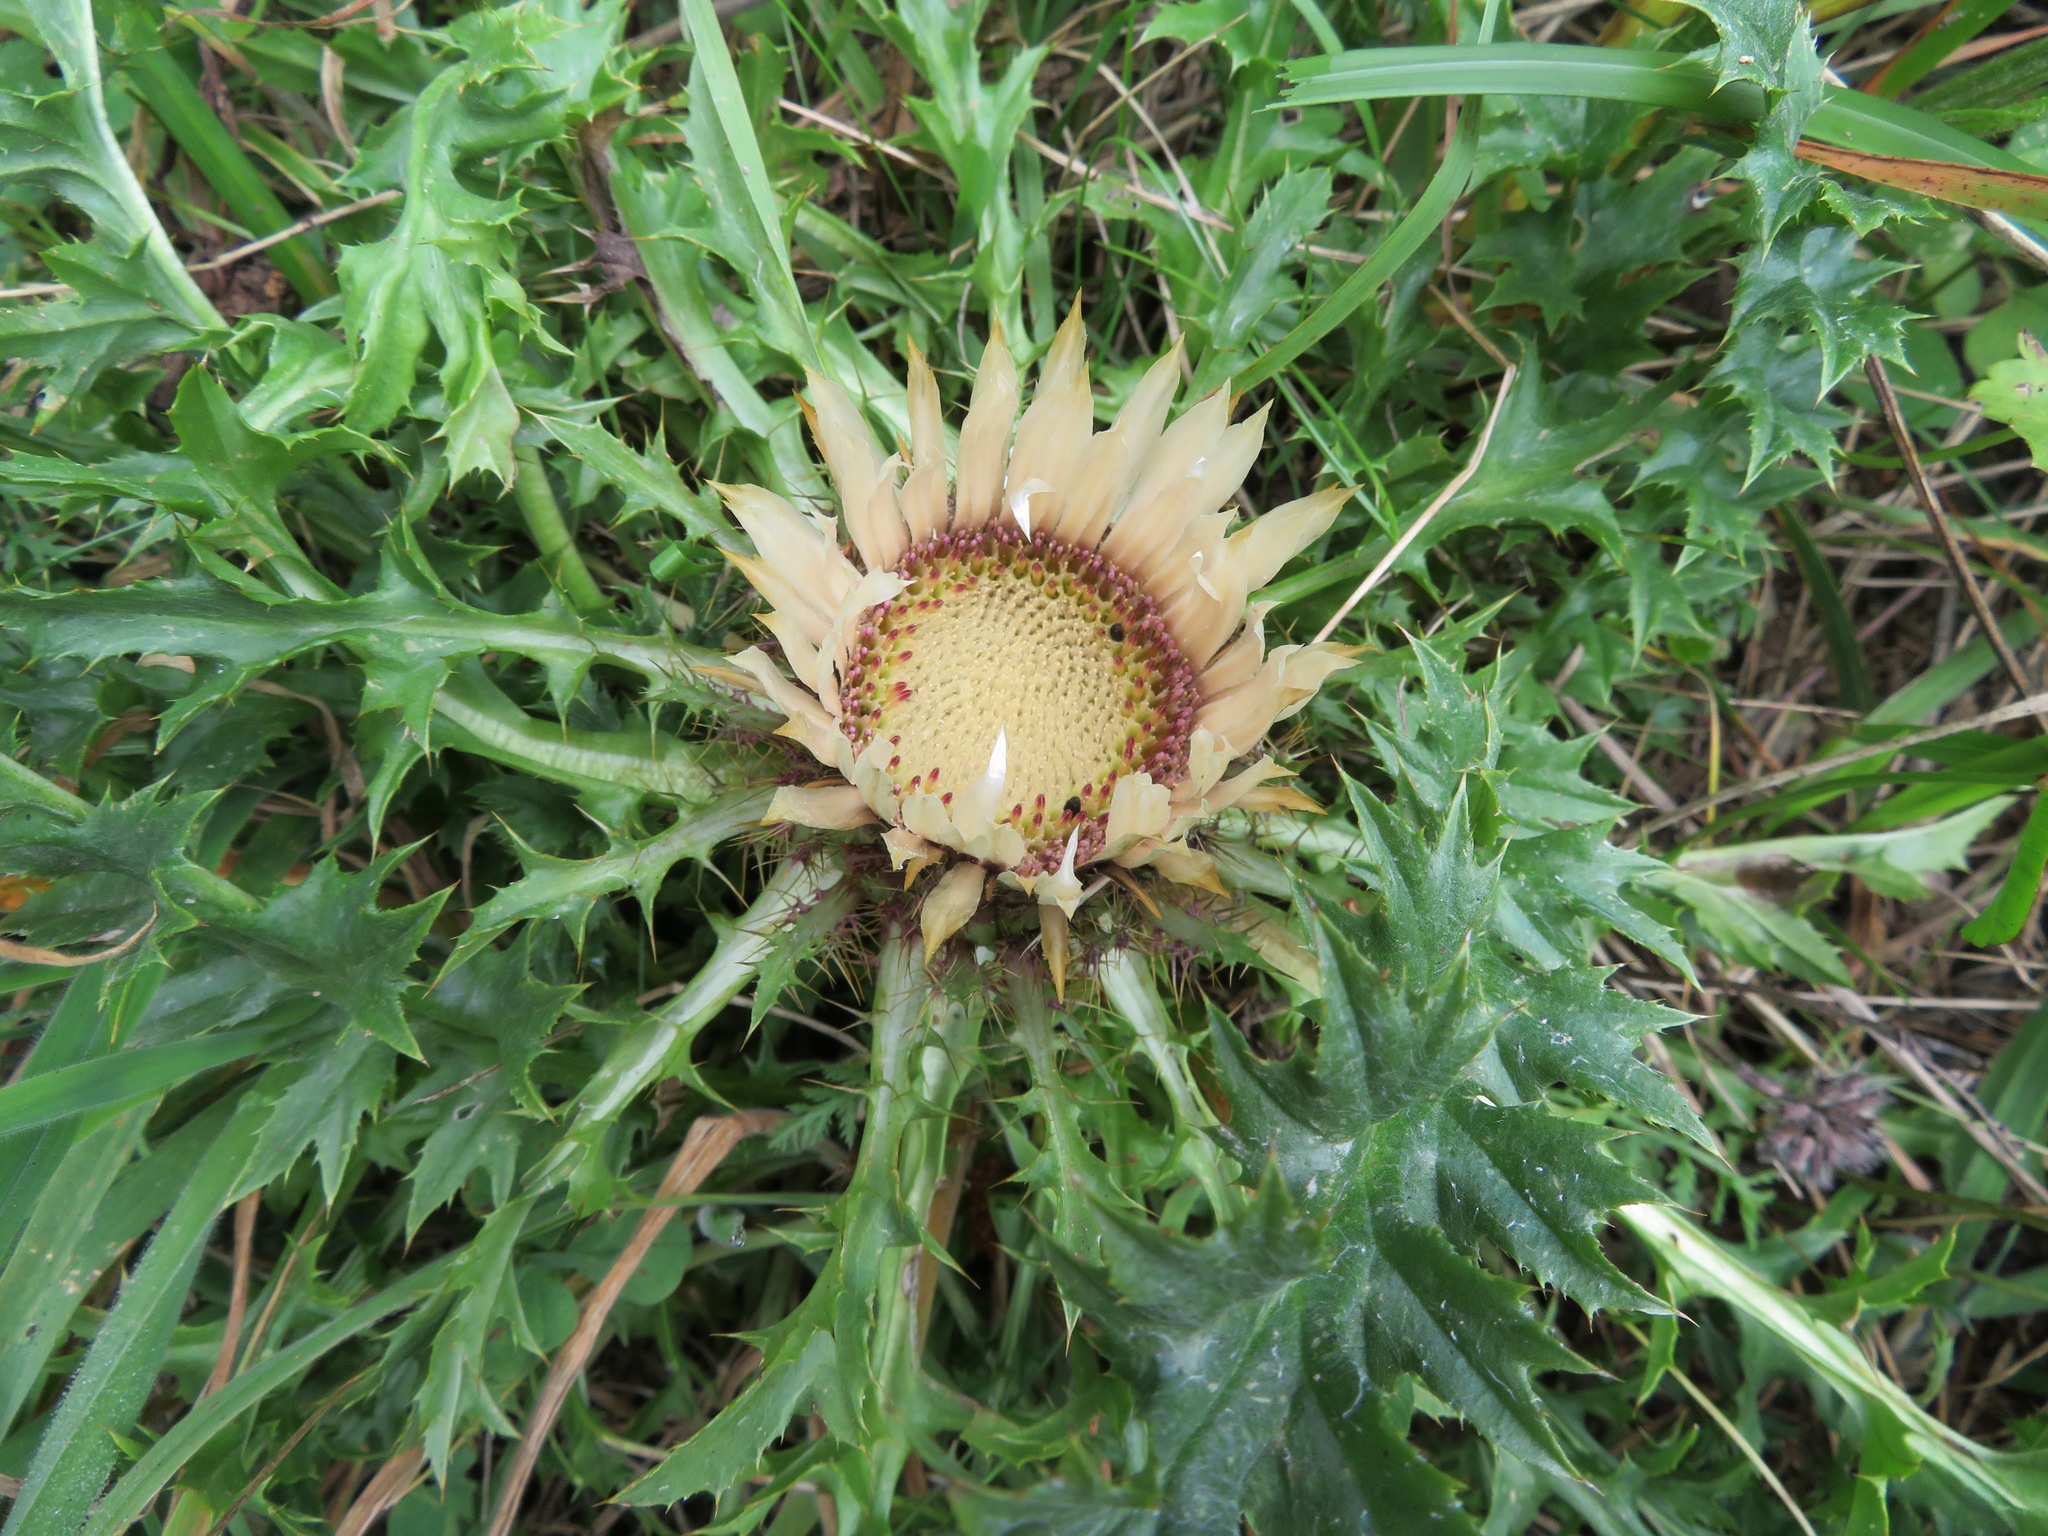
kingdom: Plantae
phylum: Tracheophyta
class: Magnoliopsida
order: Asterales
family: Asteraceae
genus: Carlina
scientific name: Carlina acaulis
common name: Stemless carline thistle
